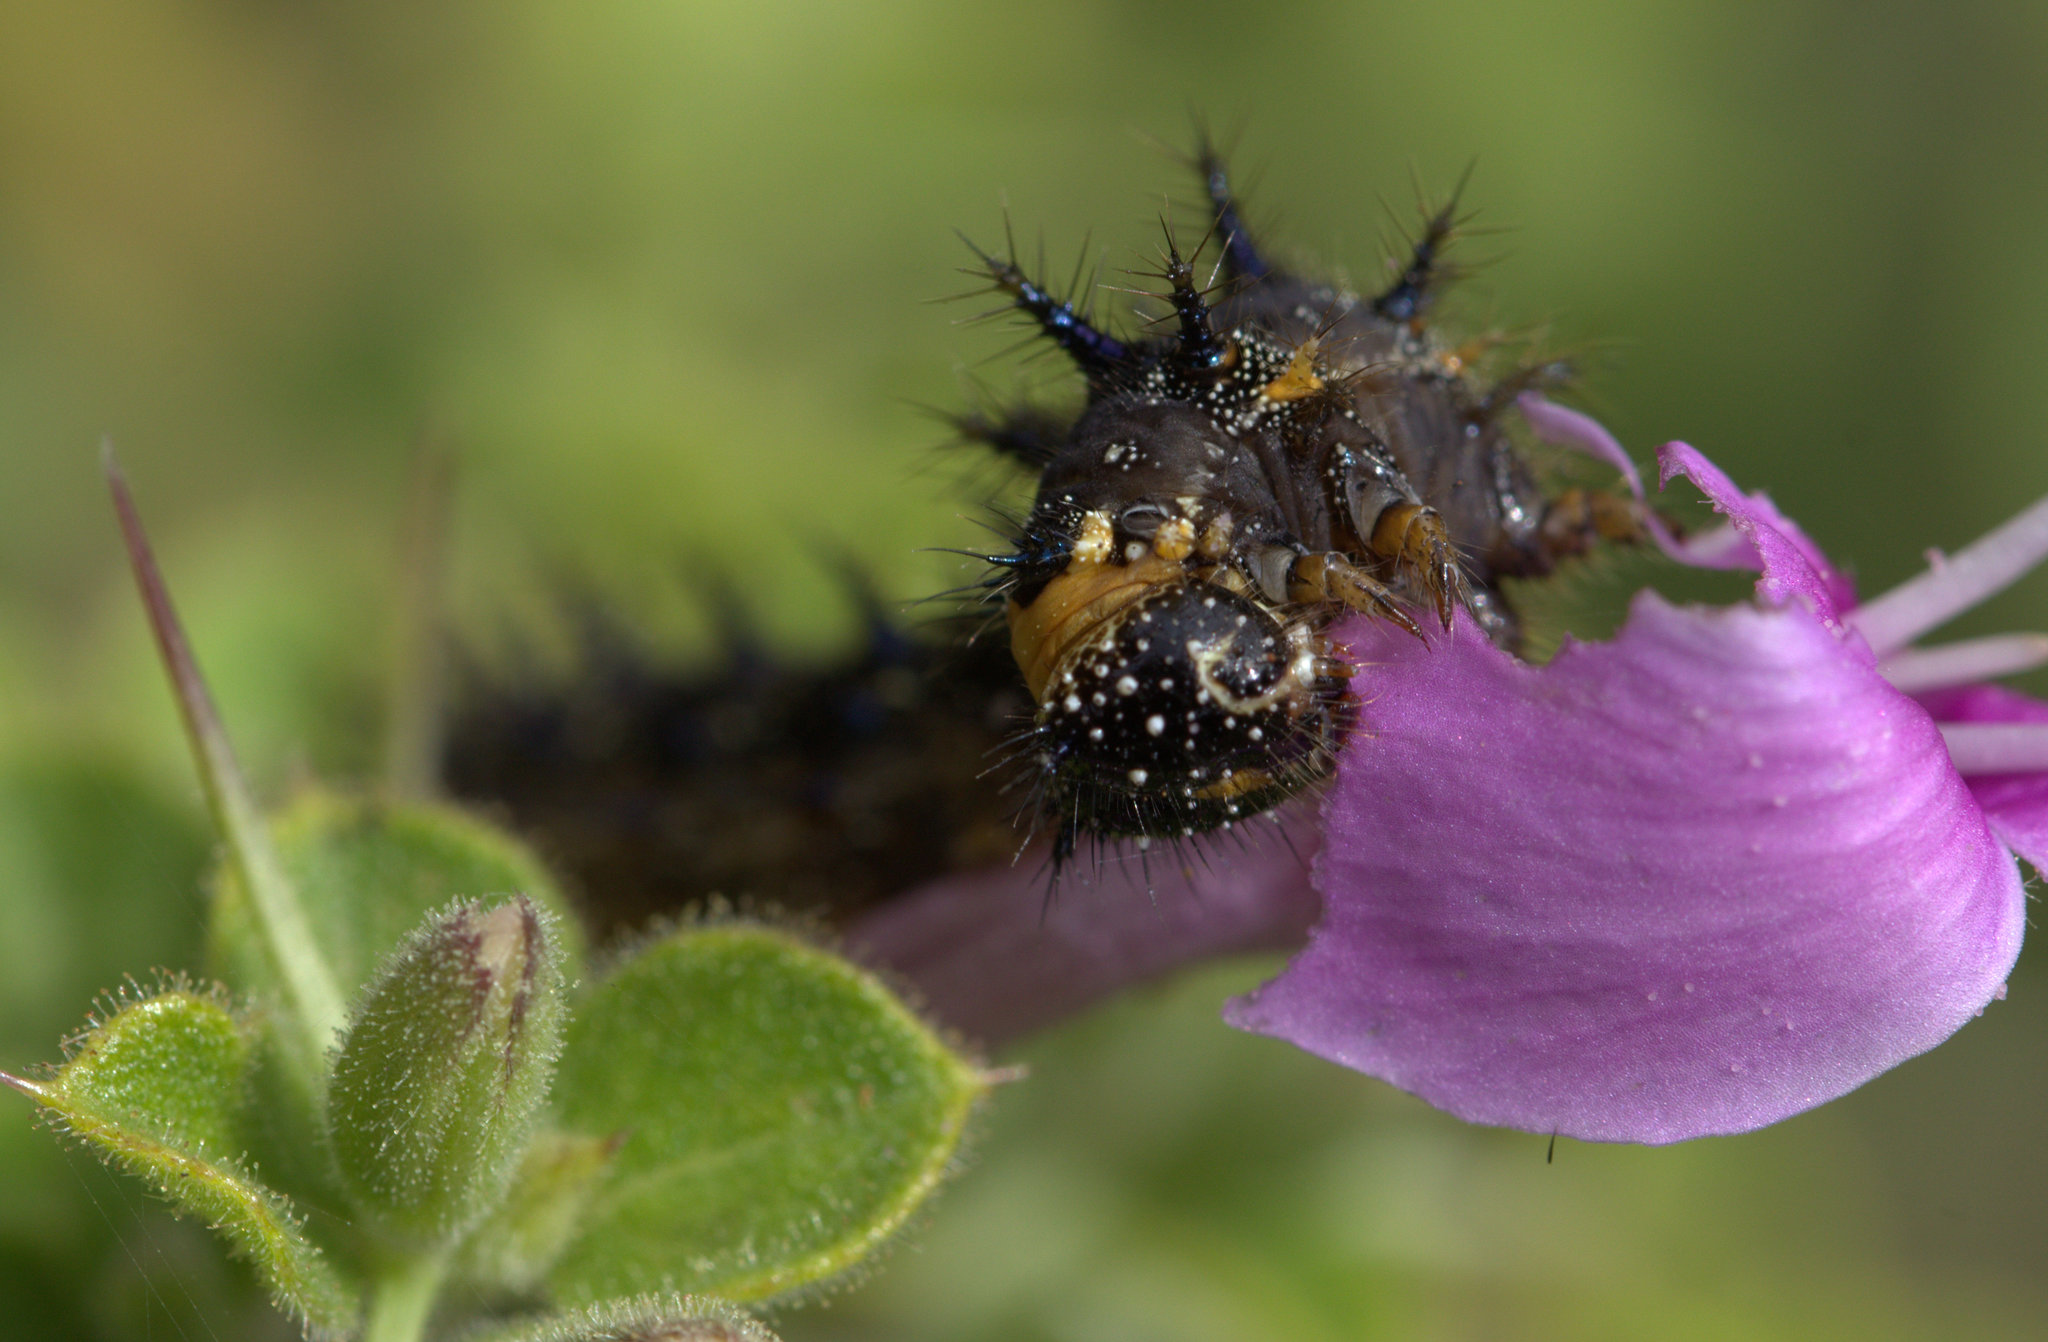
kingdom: Animalia
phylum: Arthropoda
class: Insecta
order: Lepidoptera
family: Nymphalidae
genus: Junonia
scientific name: Junonia orithya
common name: Blue pansy
